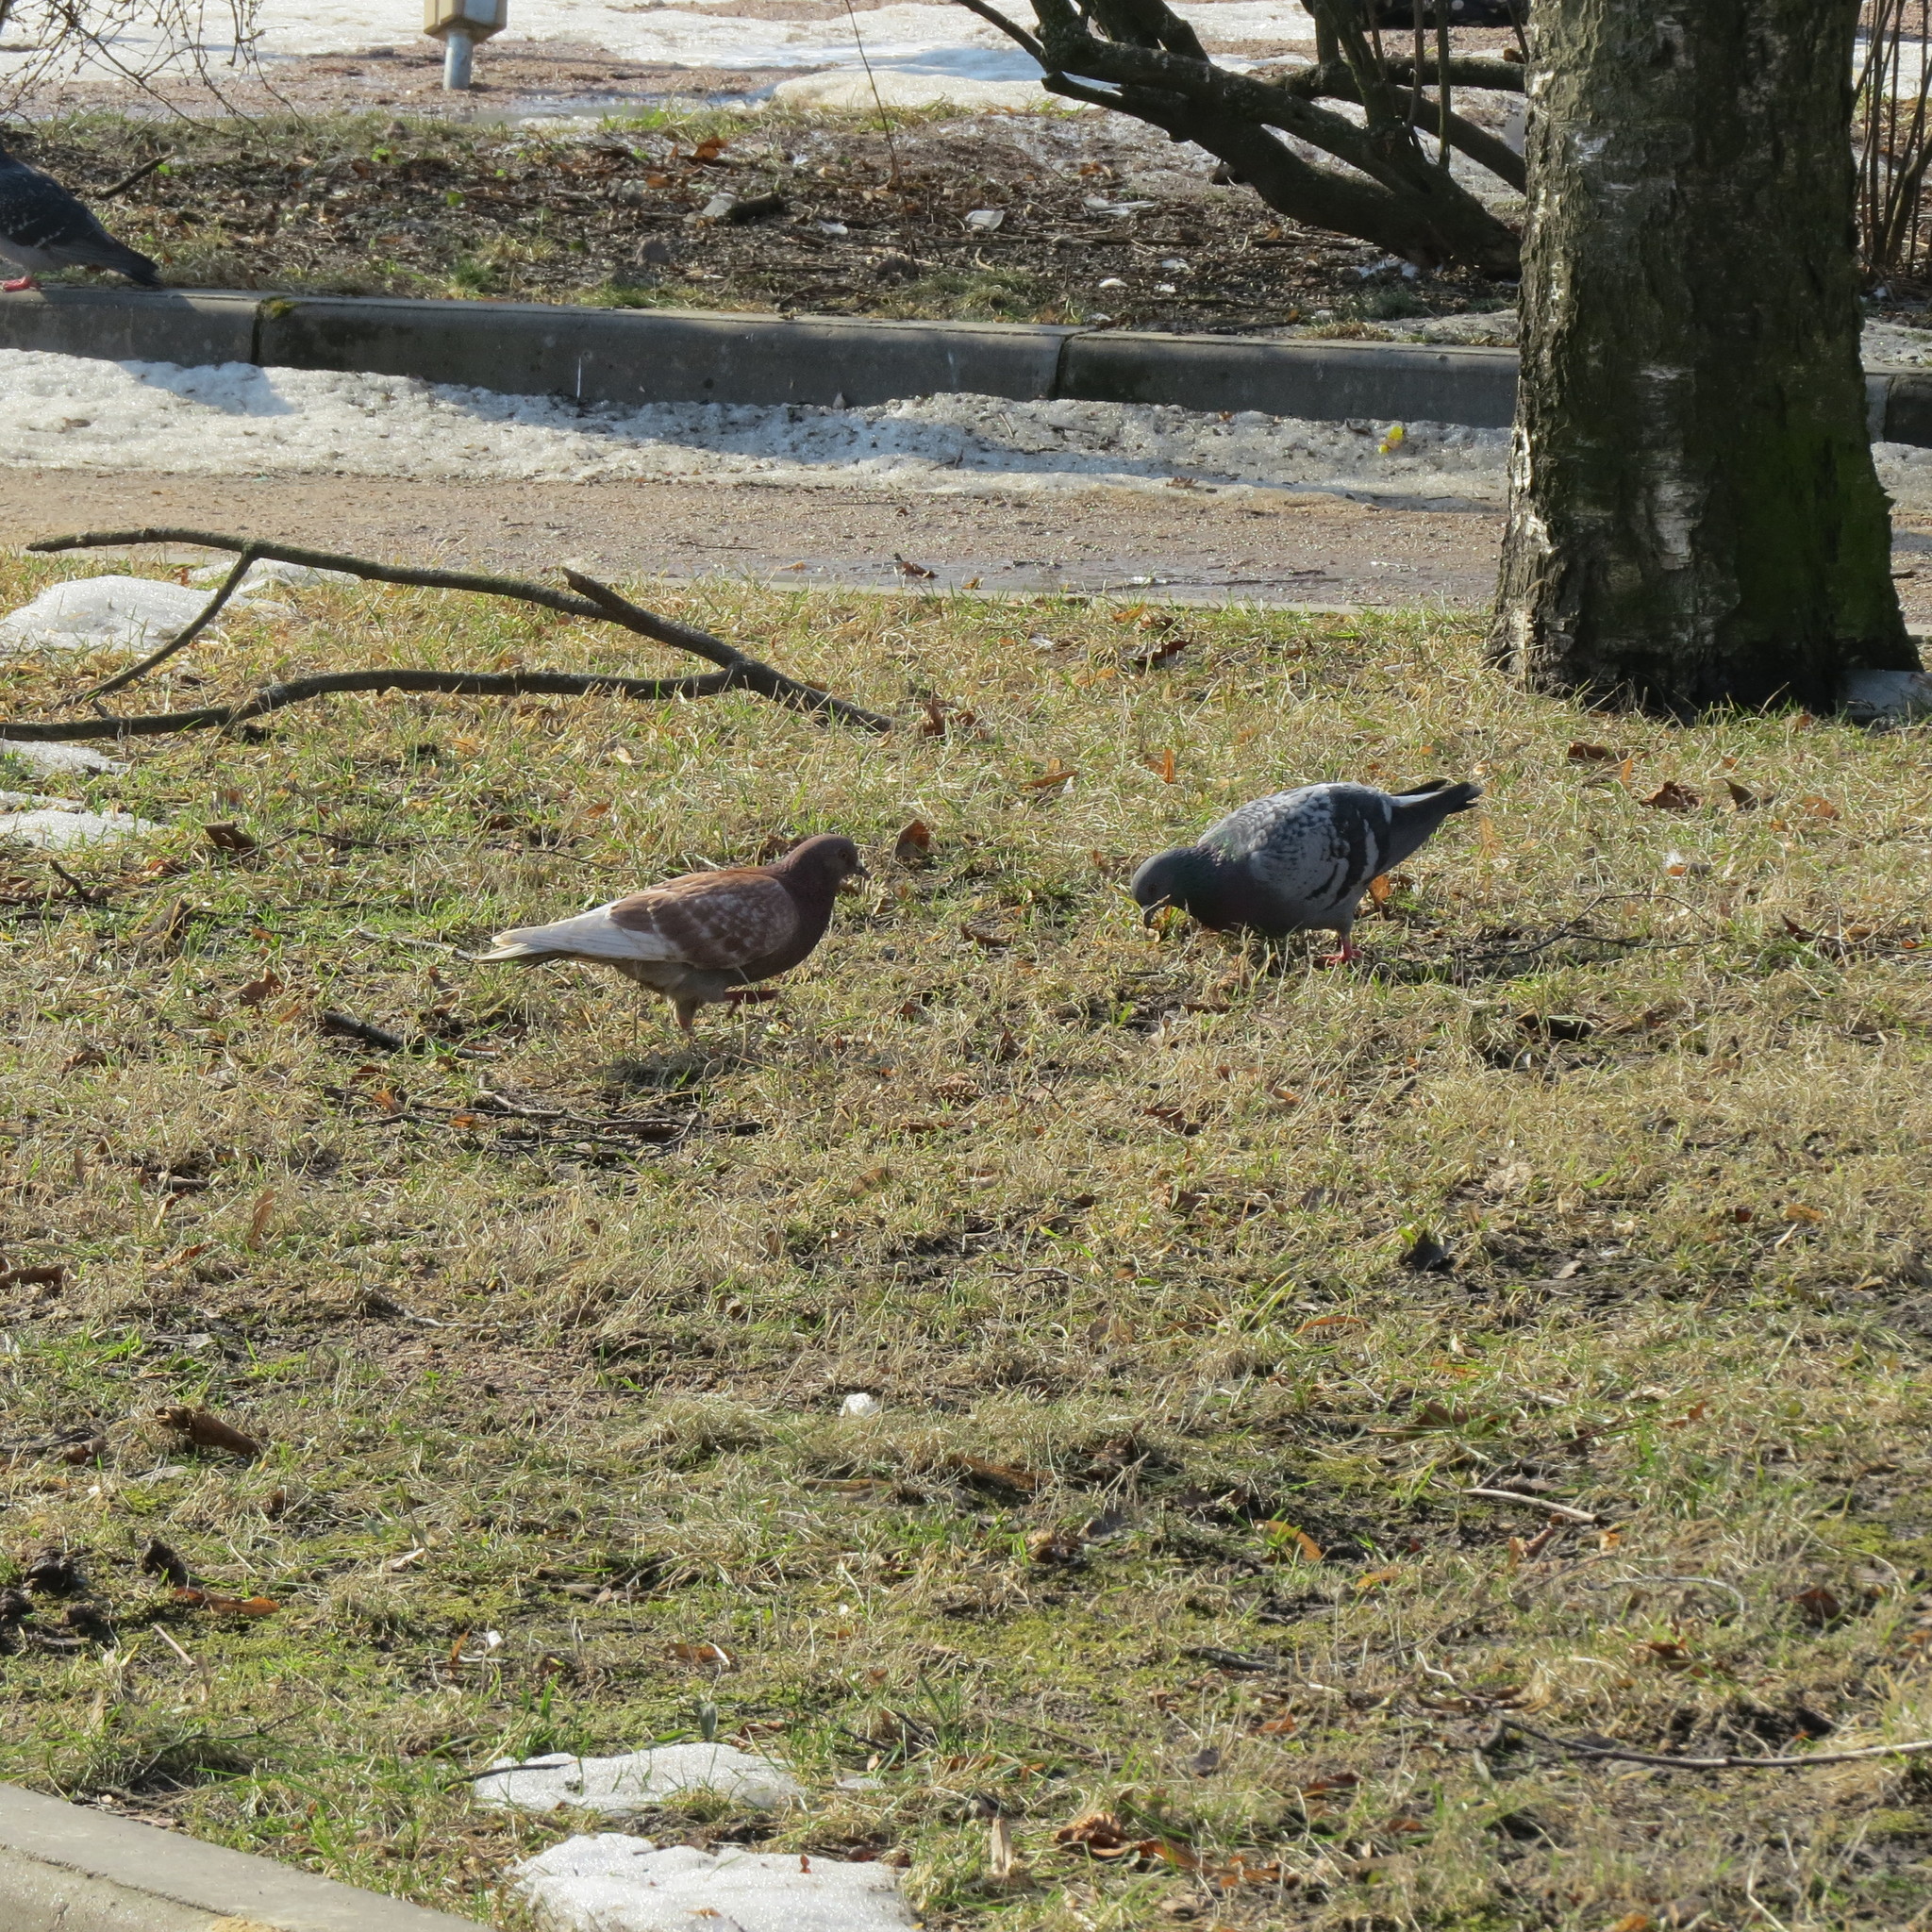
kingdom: Animalia
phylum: Chordata
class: Aves
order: Columbiformes
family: Columbidae
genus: Columba
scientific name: Columba livia
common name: Rock pigeon
